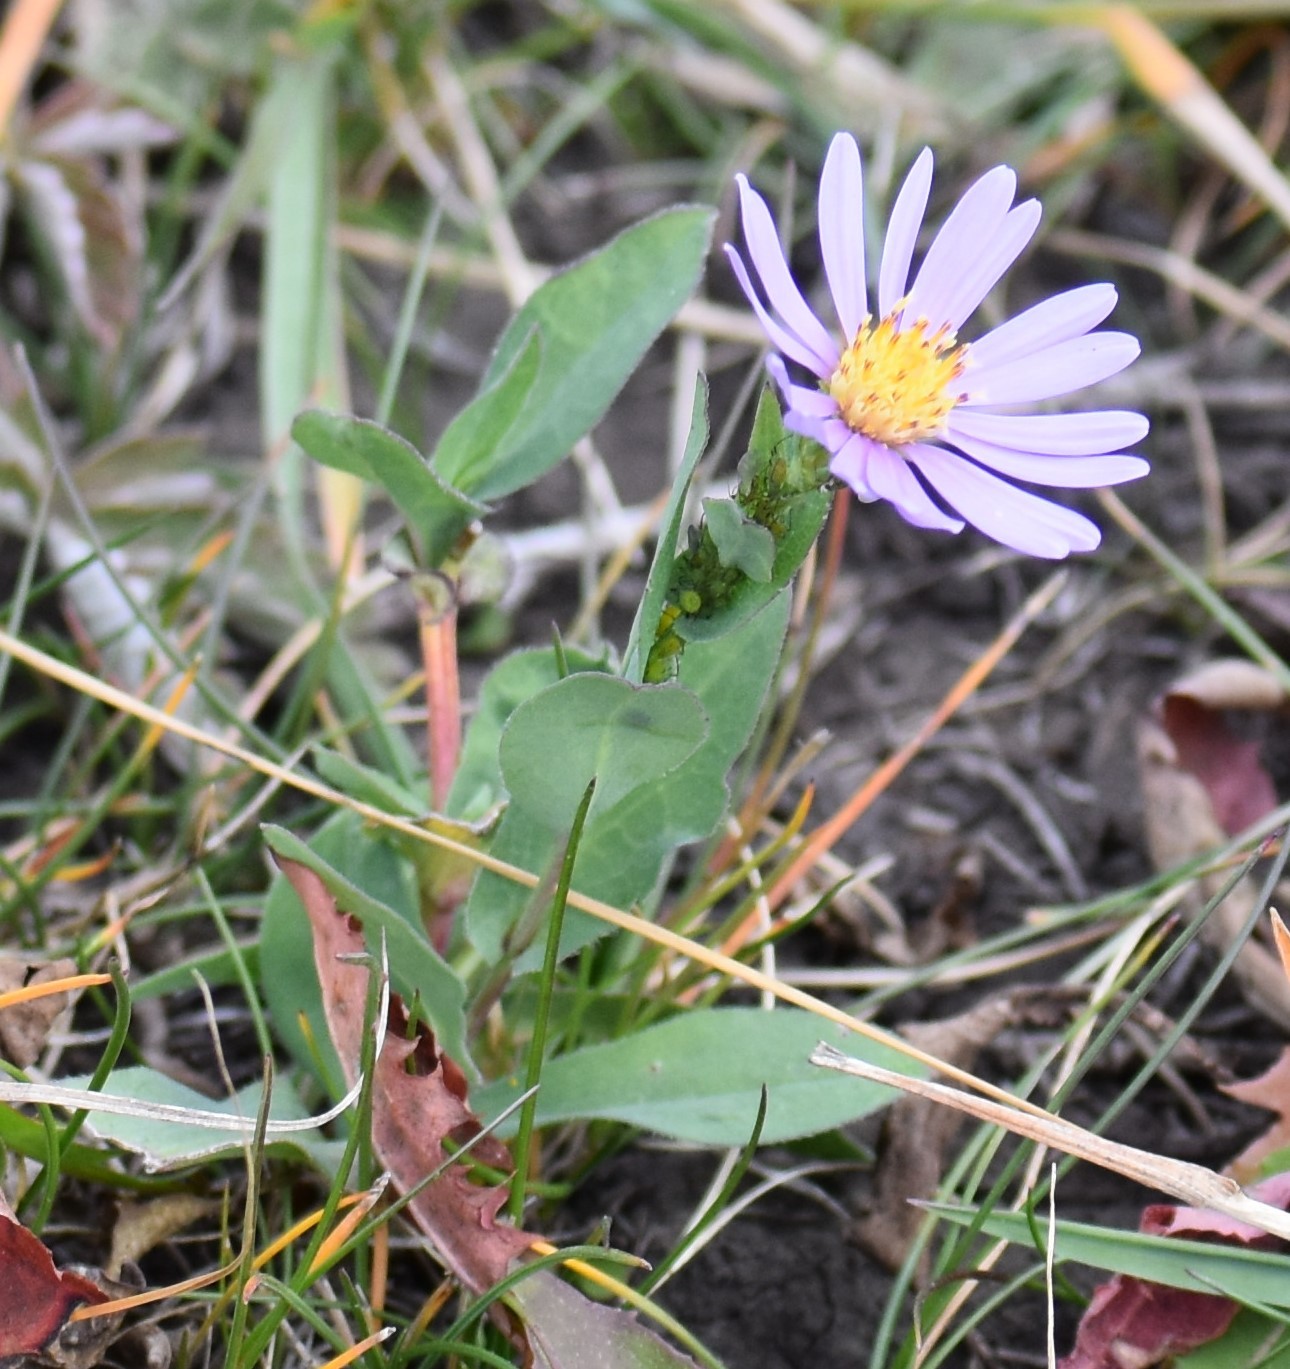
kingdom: Plantae
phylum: Tracheophyta
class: Magnoliopsida
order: Asterales
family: Asteraceae
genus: Symphyotrichum
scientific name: Symphyotrichum laeve
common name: Glaucous aster
